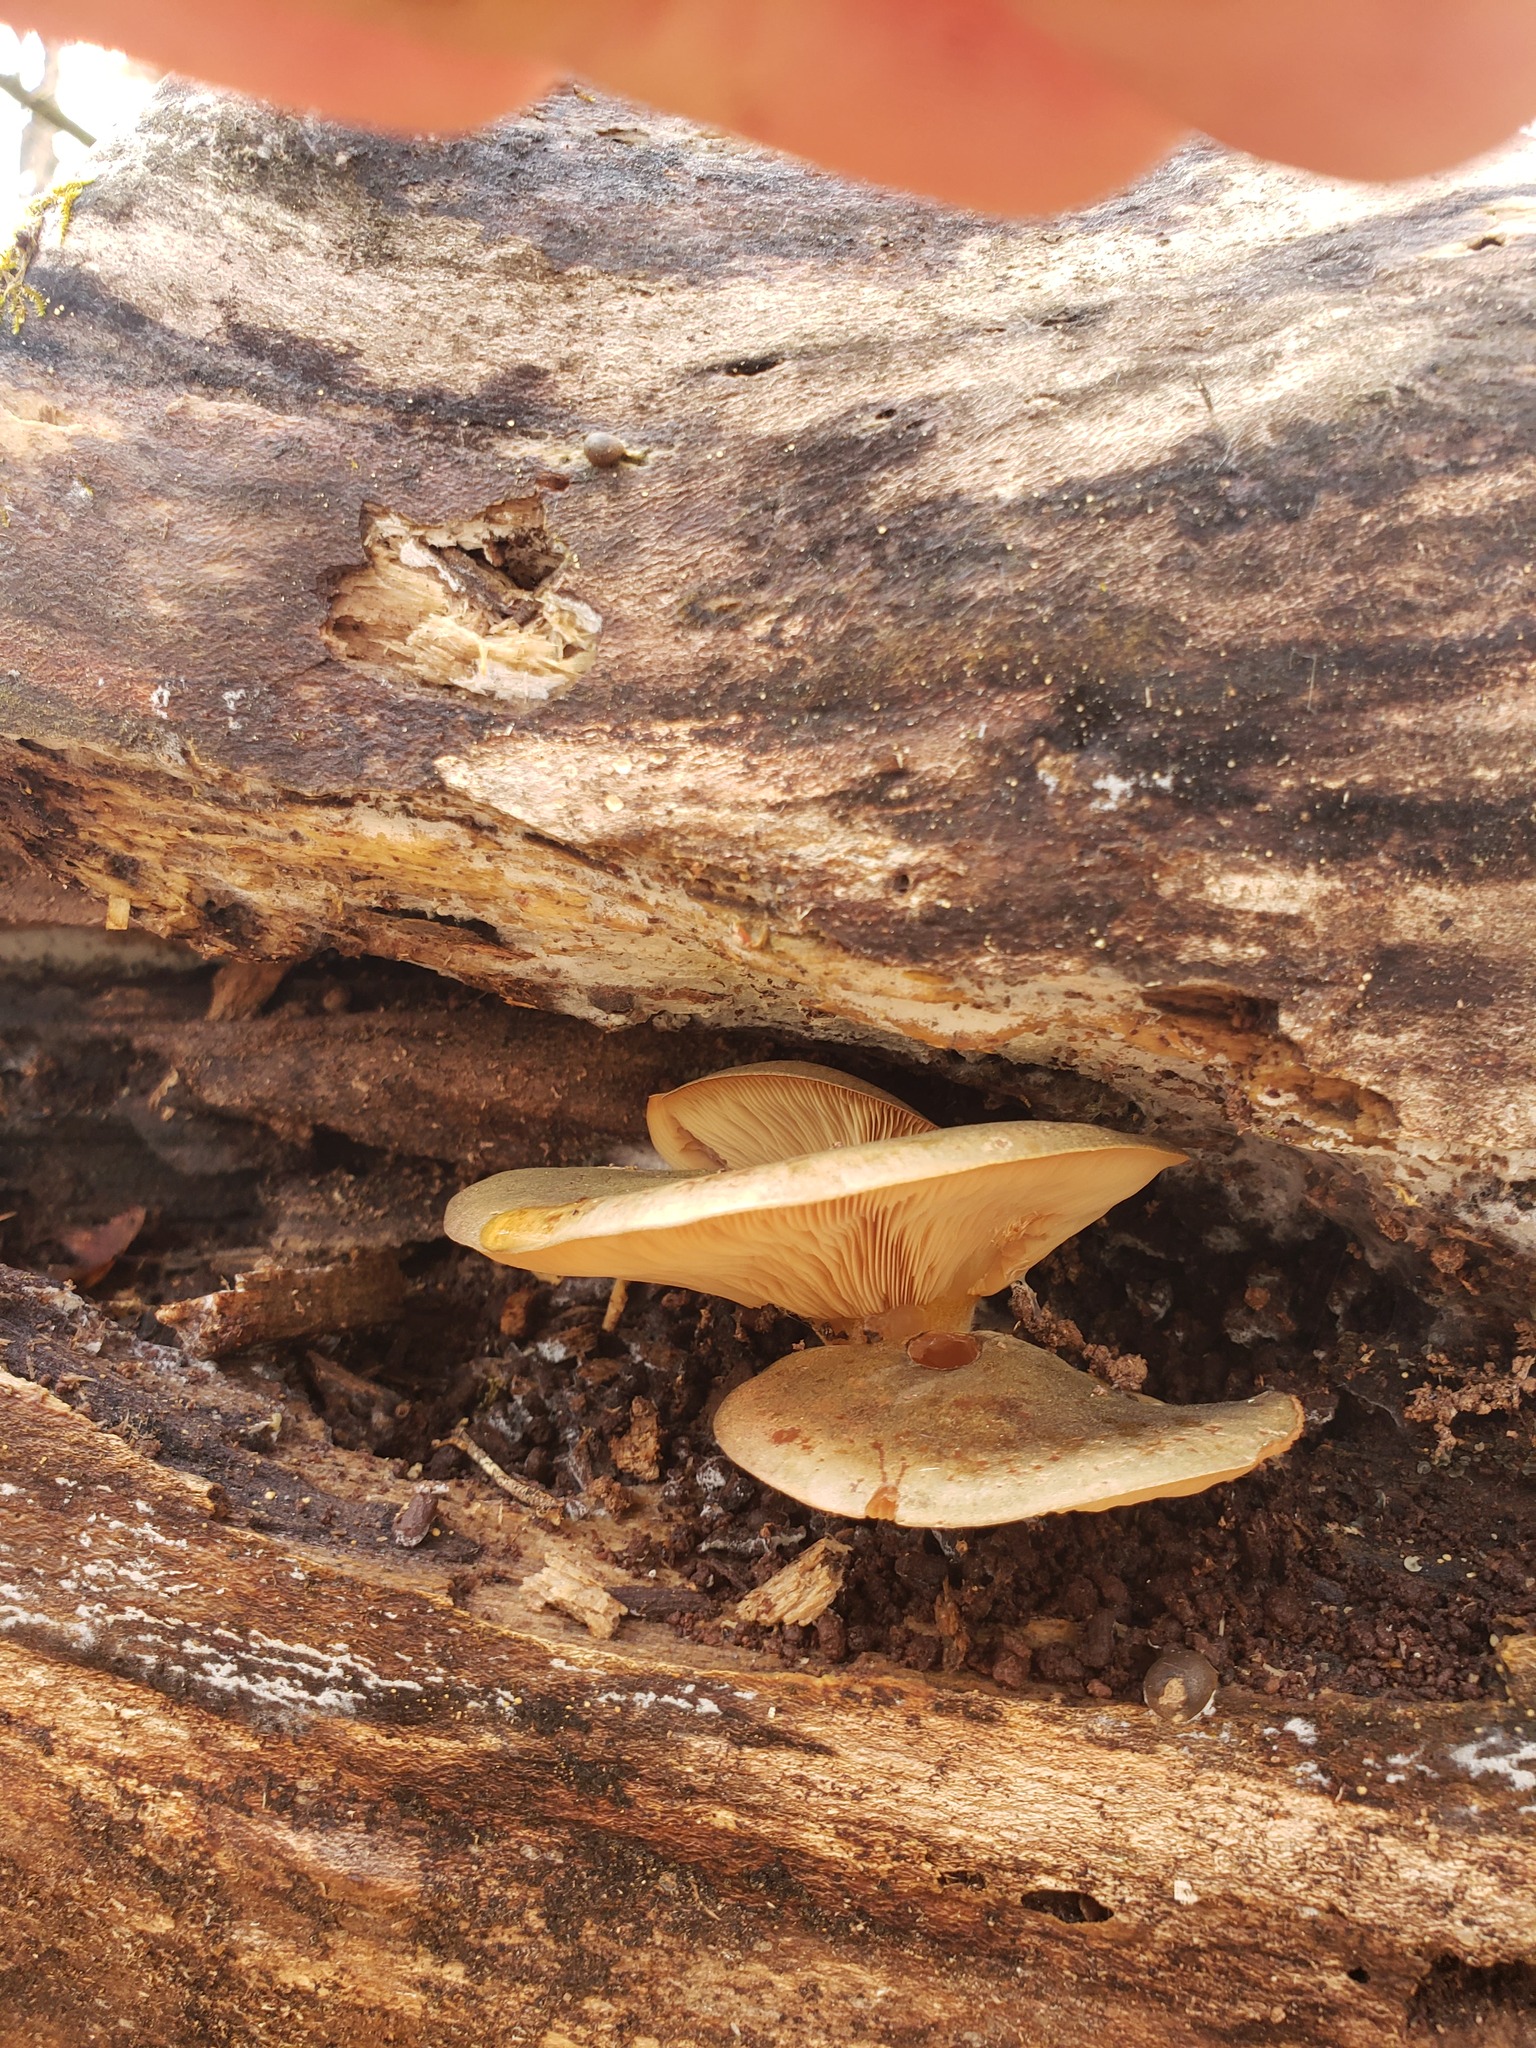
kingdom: Fungi
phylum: Basidiomycota
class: Agaricomycetes
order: Agaricales
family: Sarcomyxaceae
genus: Sarcomyxa
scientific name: Sarcomyxa serotina
